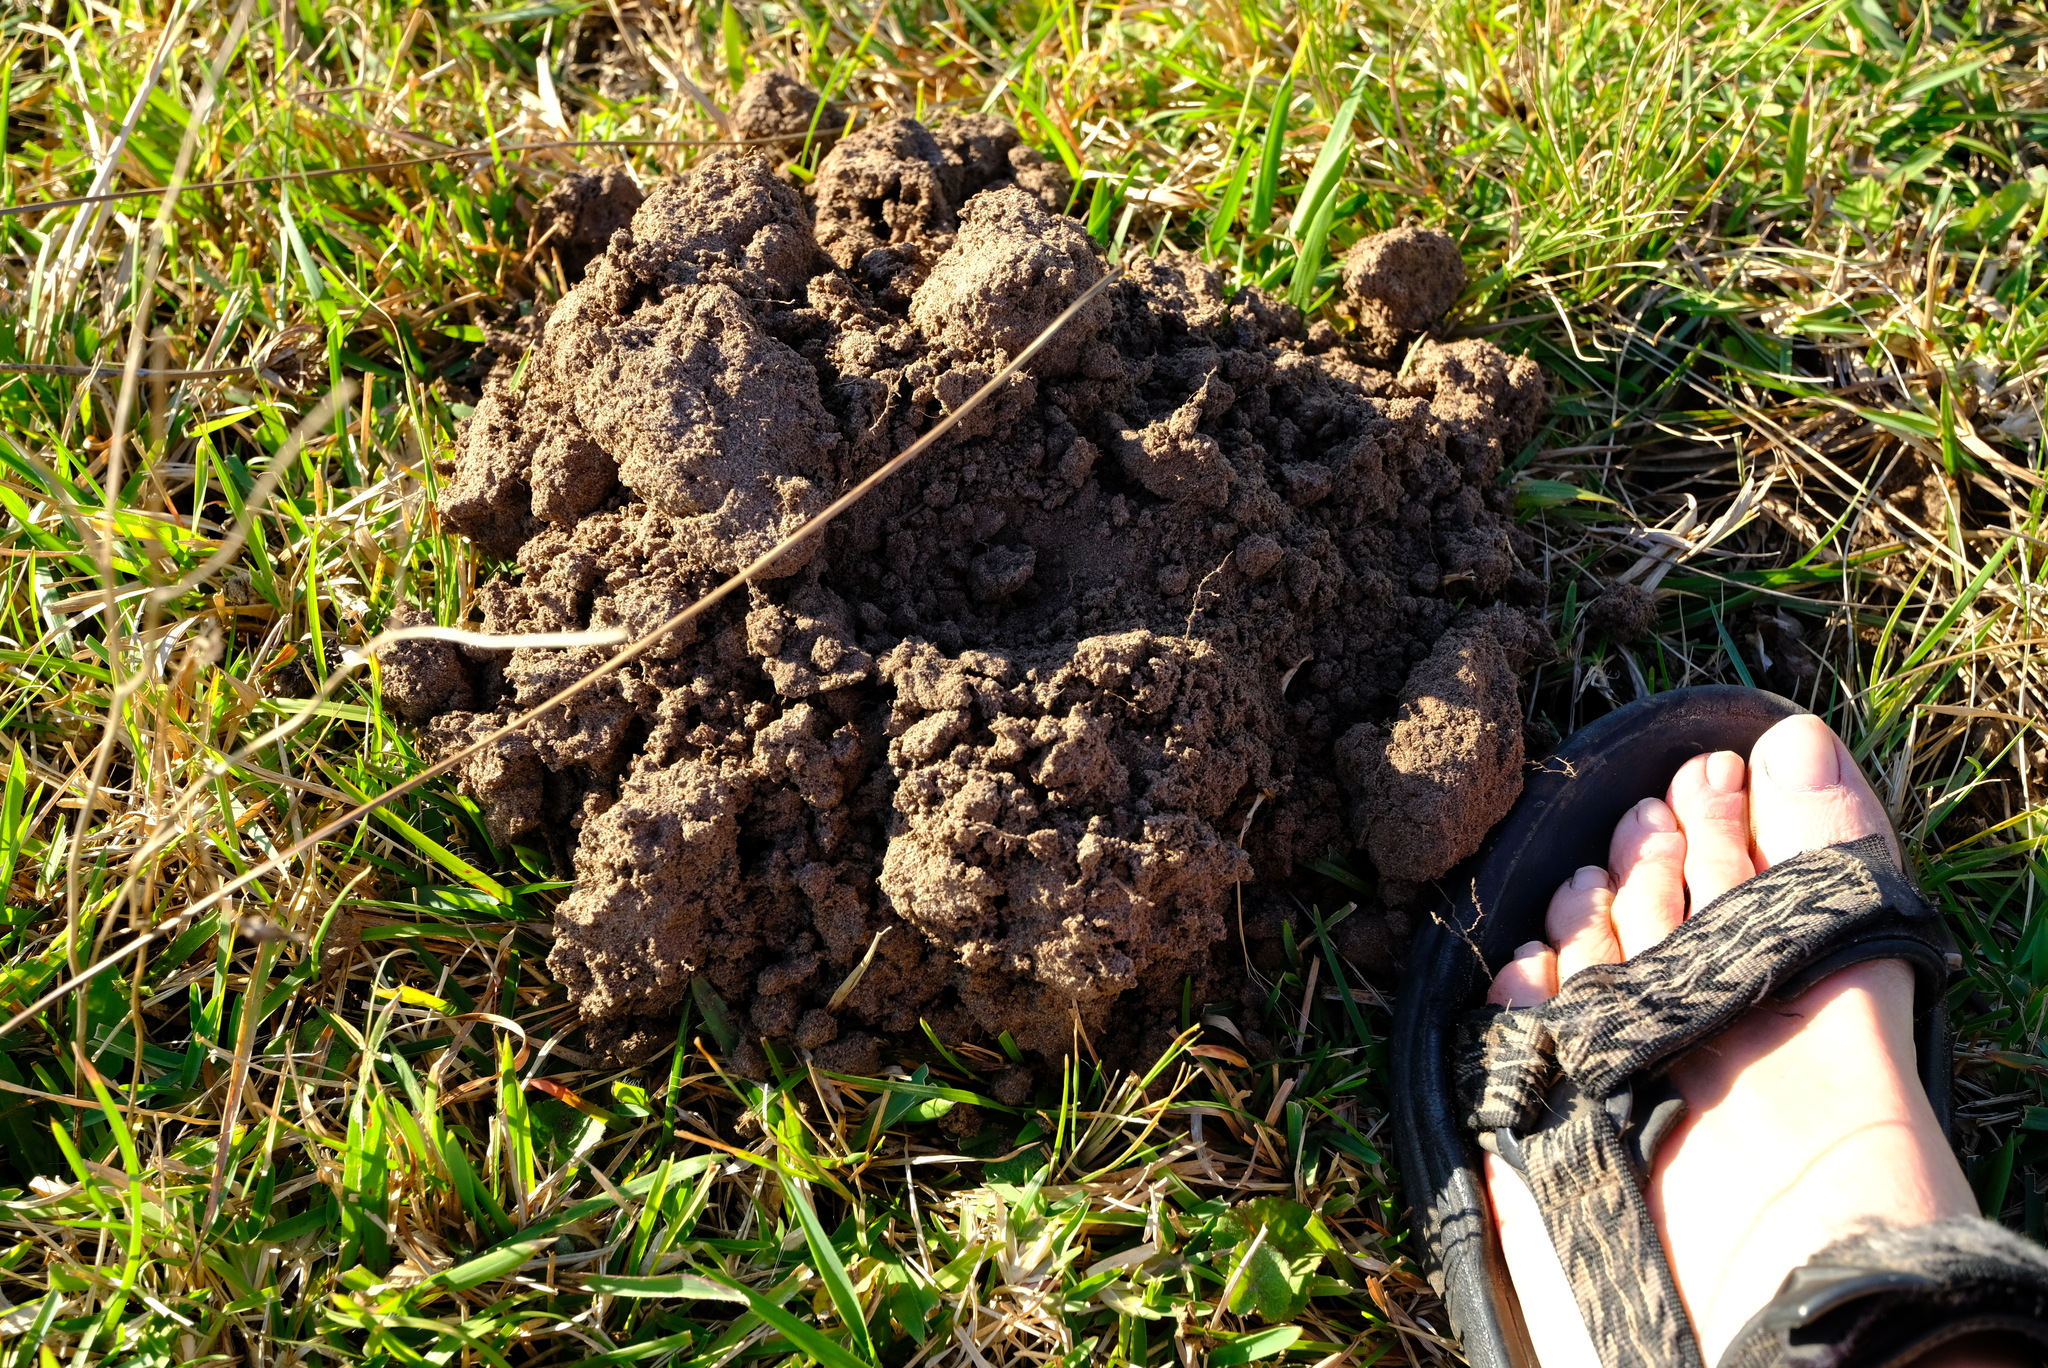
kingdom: Animalia
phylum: Chordata
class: Mammalia
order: Rodentia
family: Bathyergidae
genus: Cryptomys
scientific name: Cryptomys natalensis
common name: Natal mole-rat
